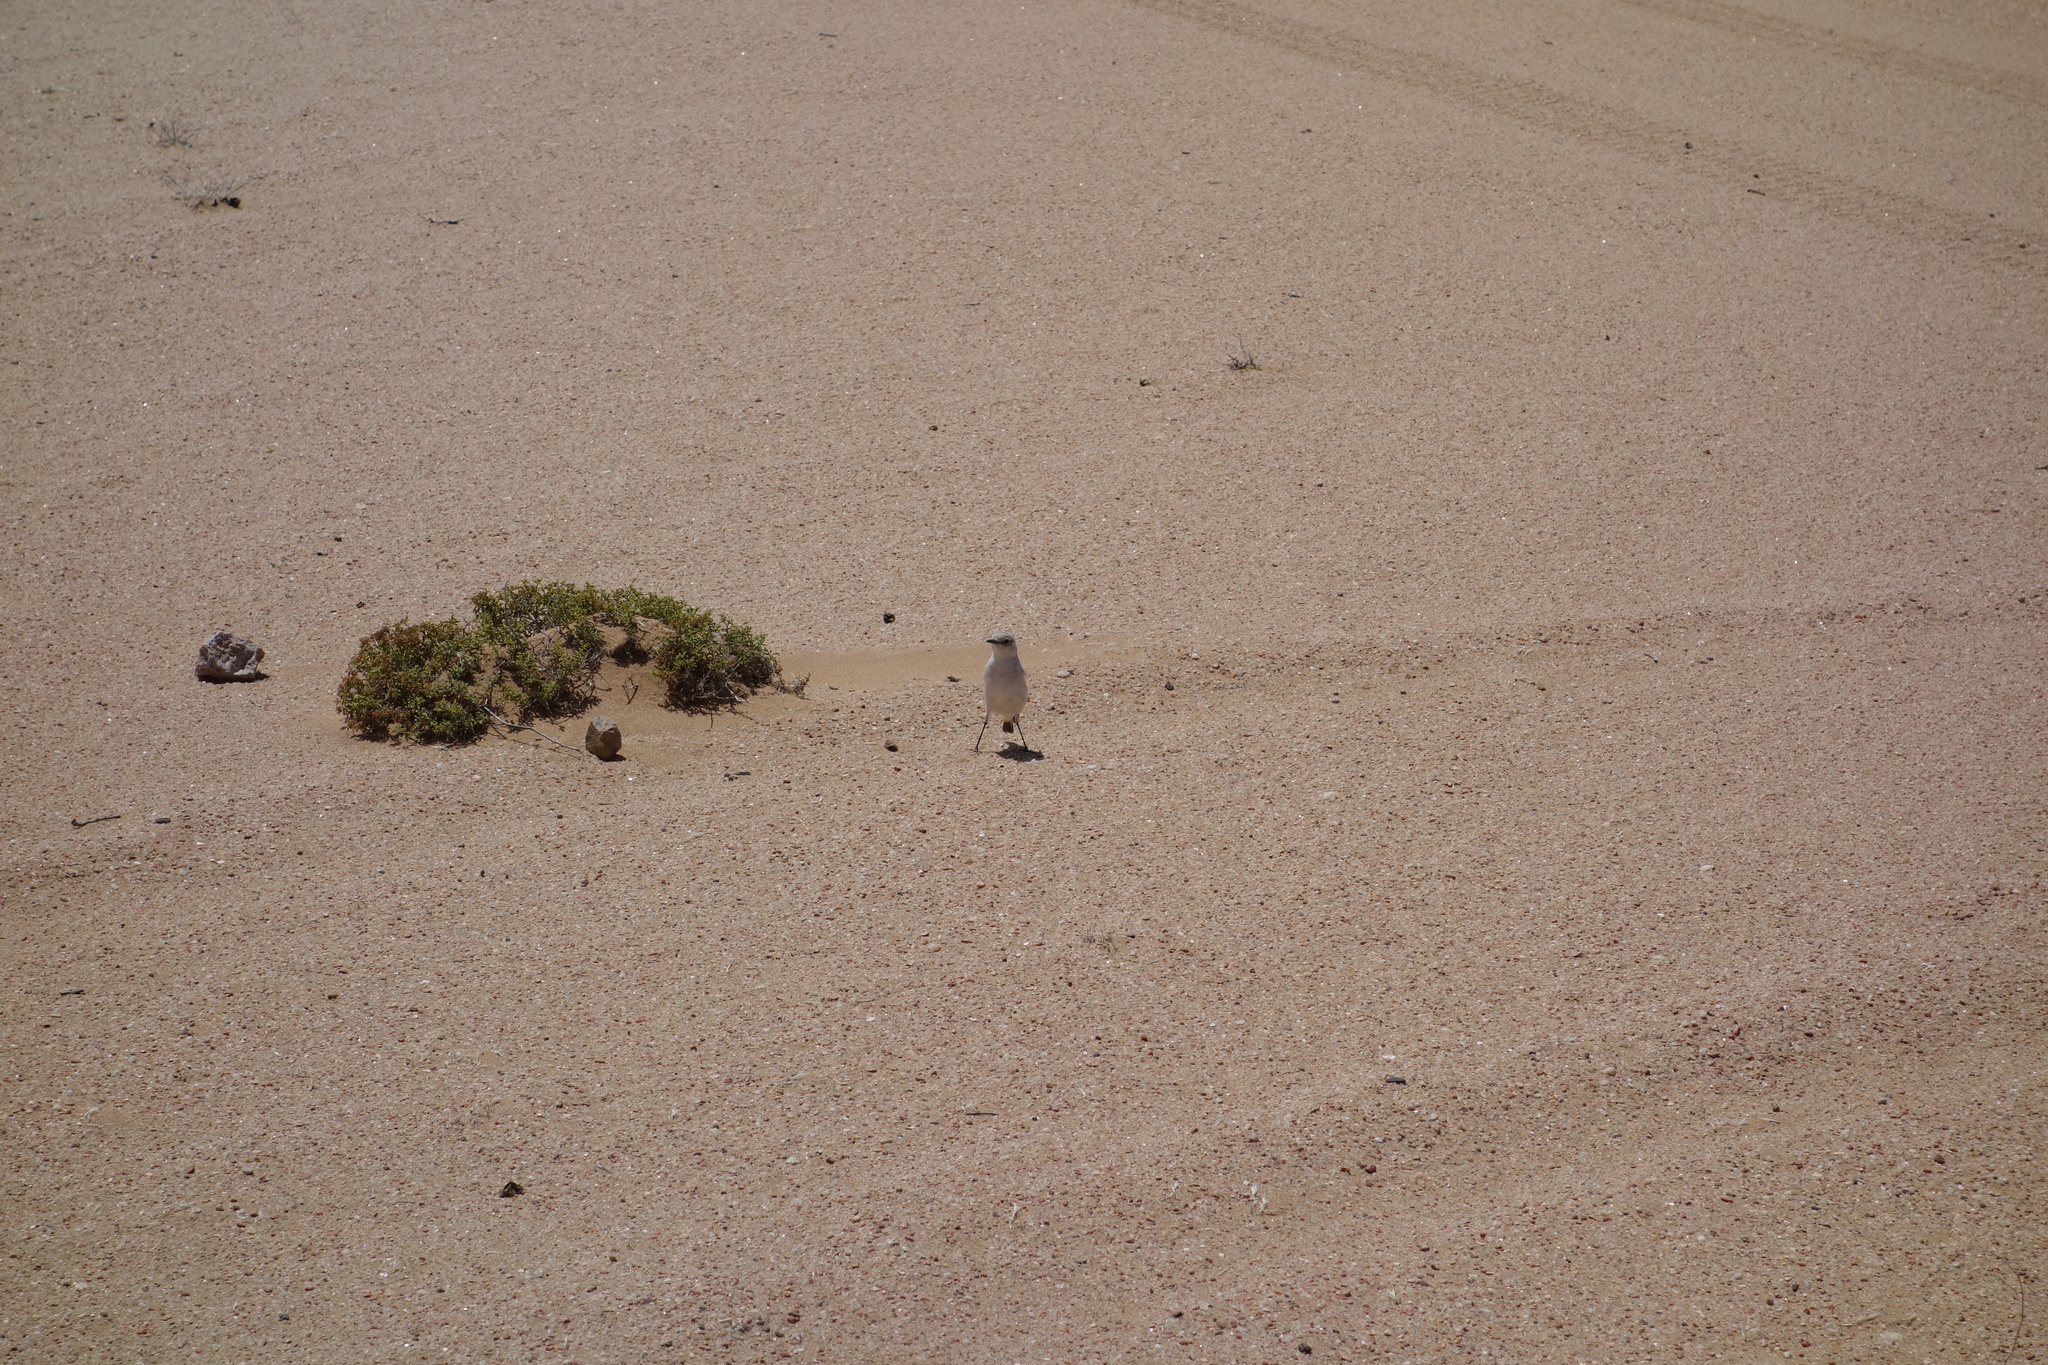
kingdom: Animalia
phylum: Chordata
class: Aves
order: Passeriformes
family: Muscicapidae
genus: Emarginata
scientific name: Emarginata tractrac
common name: Tractrac chat
